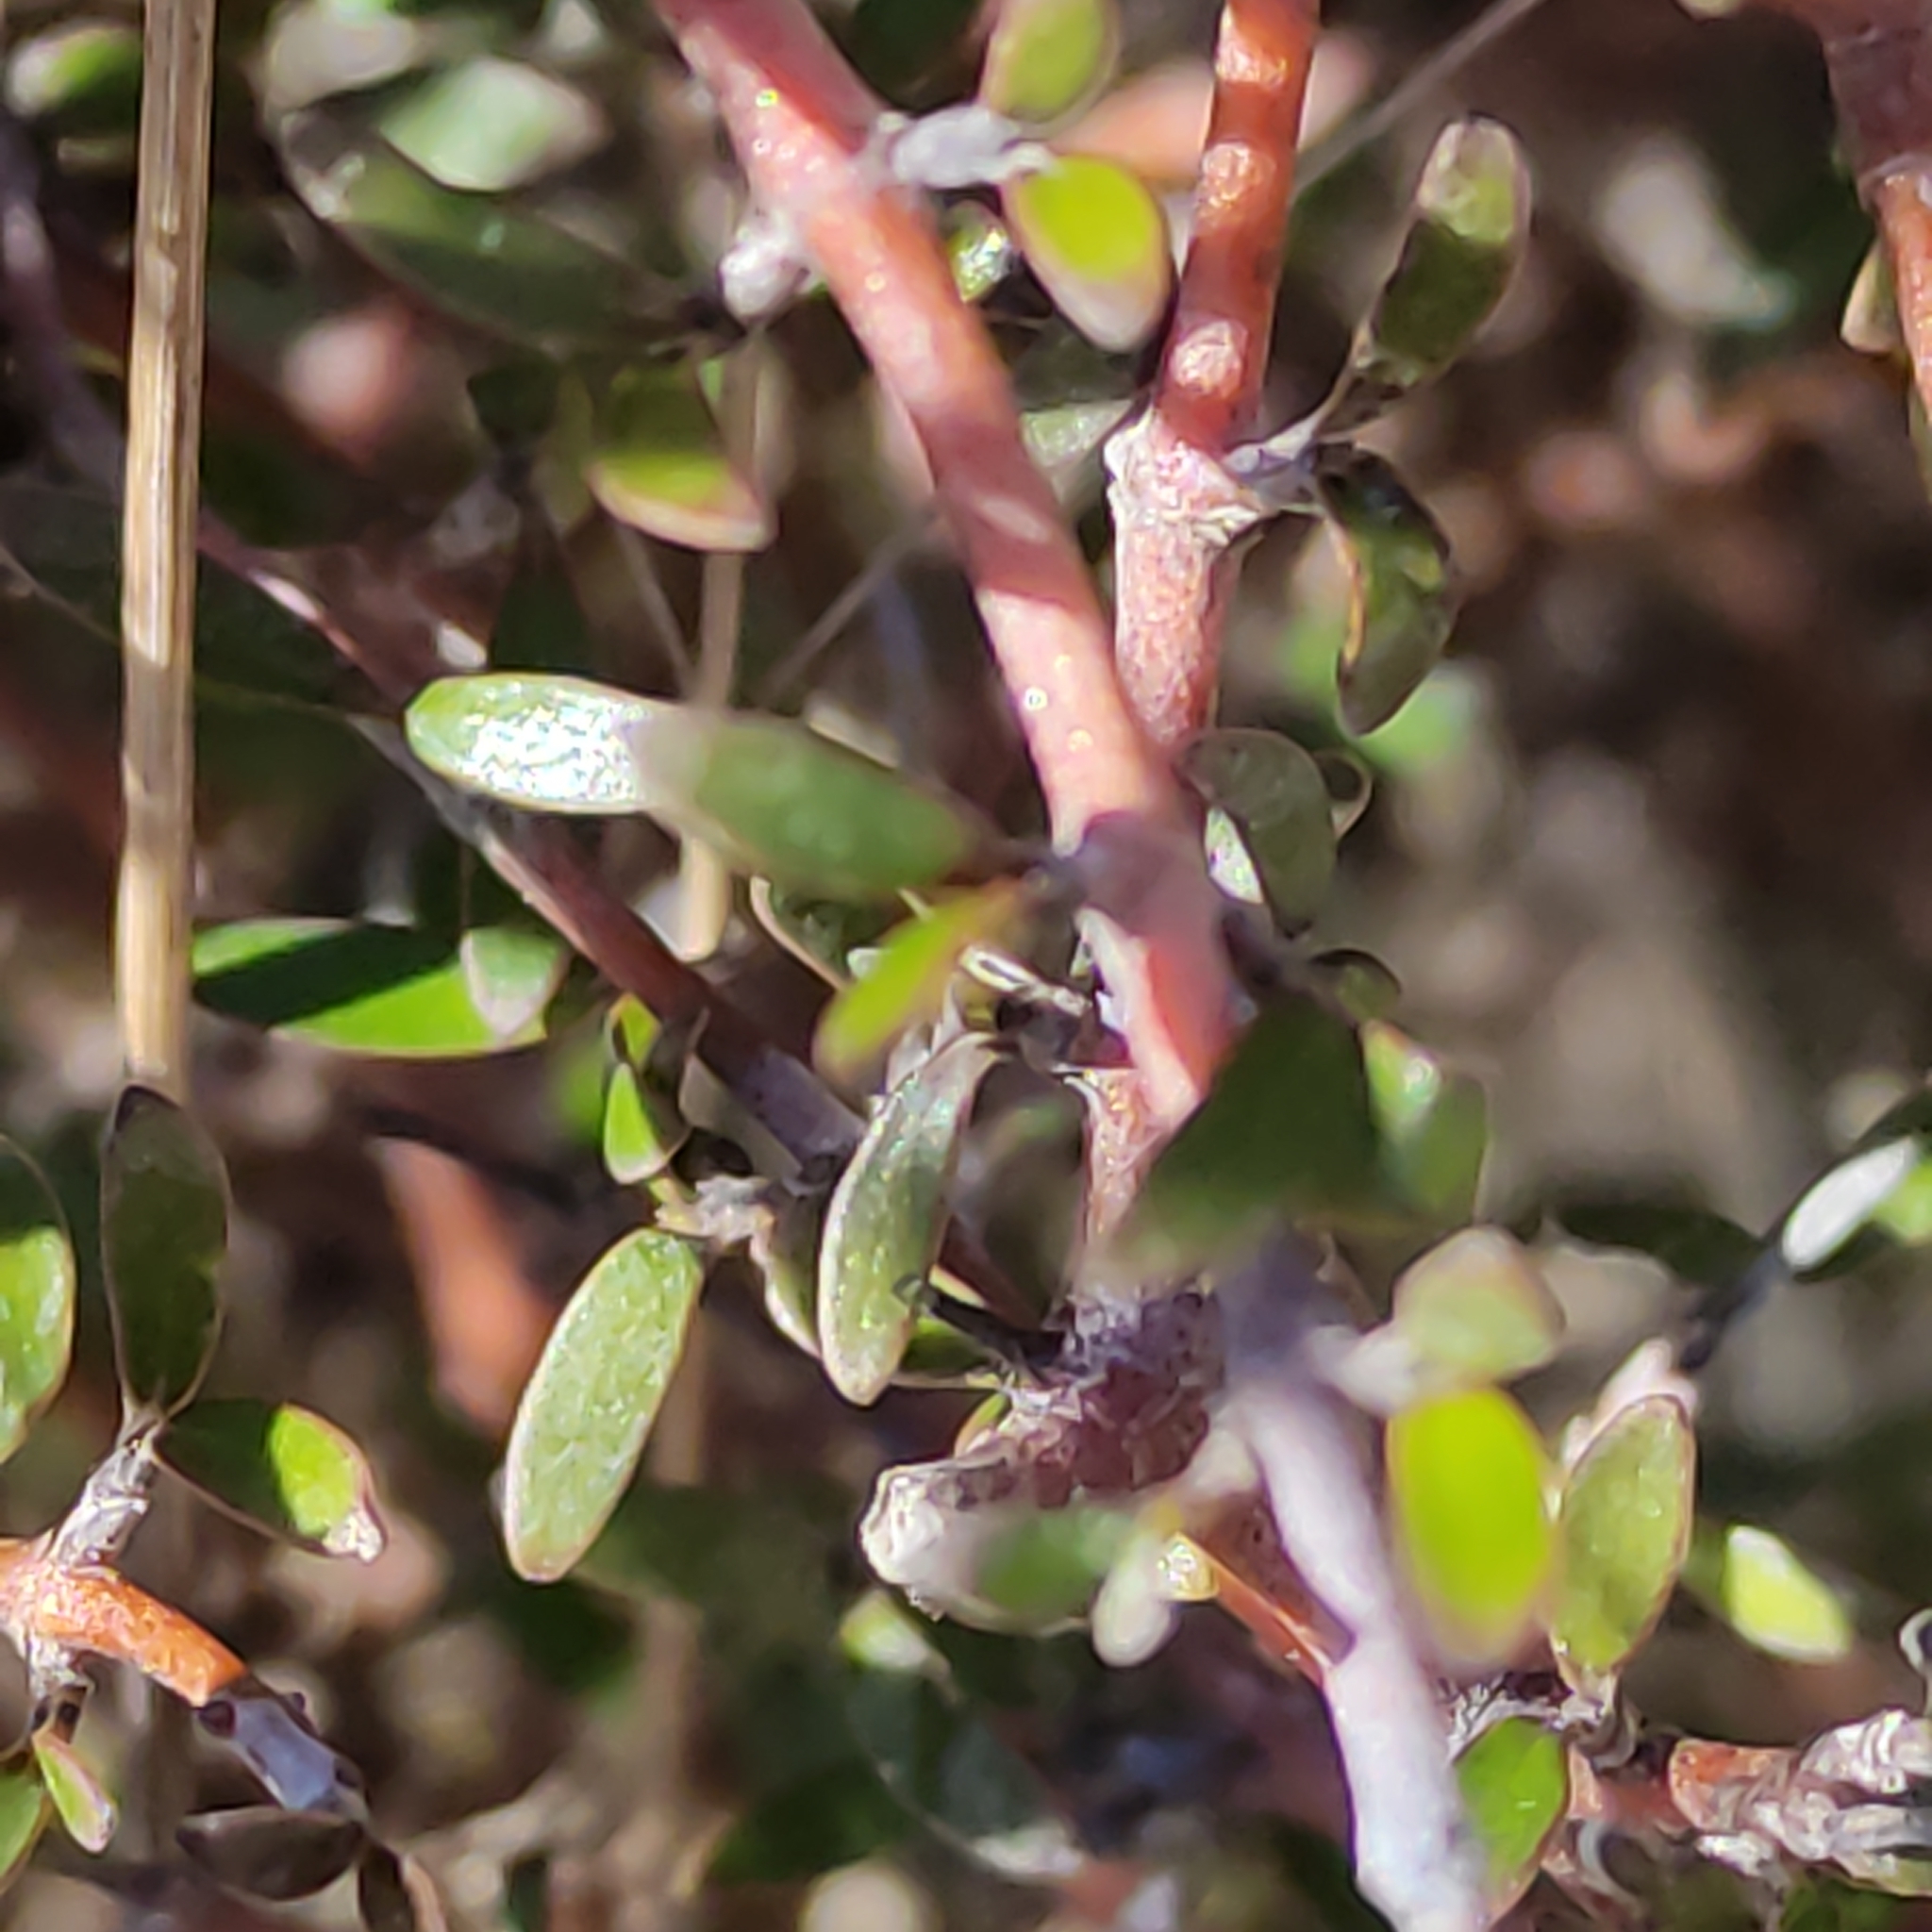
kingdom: Plantae
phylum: Tracheophyta
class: Magnoliopsida
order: Gentianales
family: Rubiaceae
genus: Coprosma
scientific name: Coprosma propinqua
